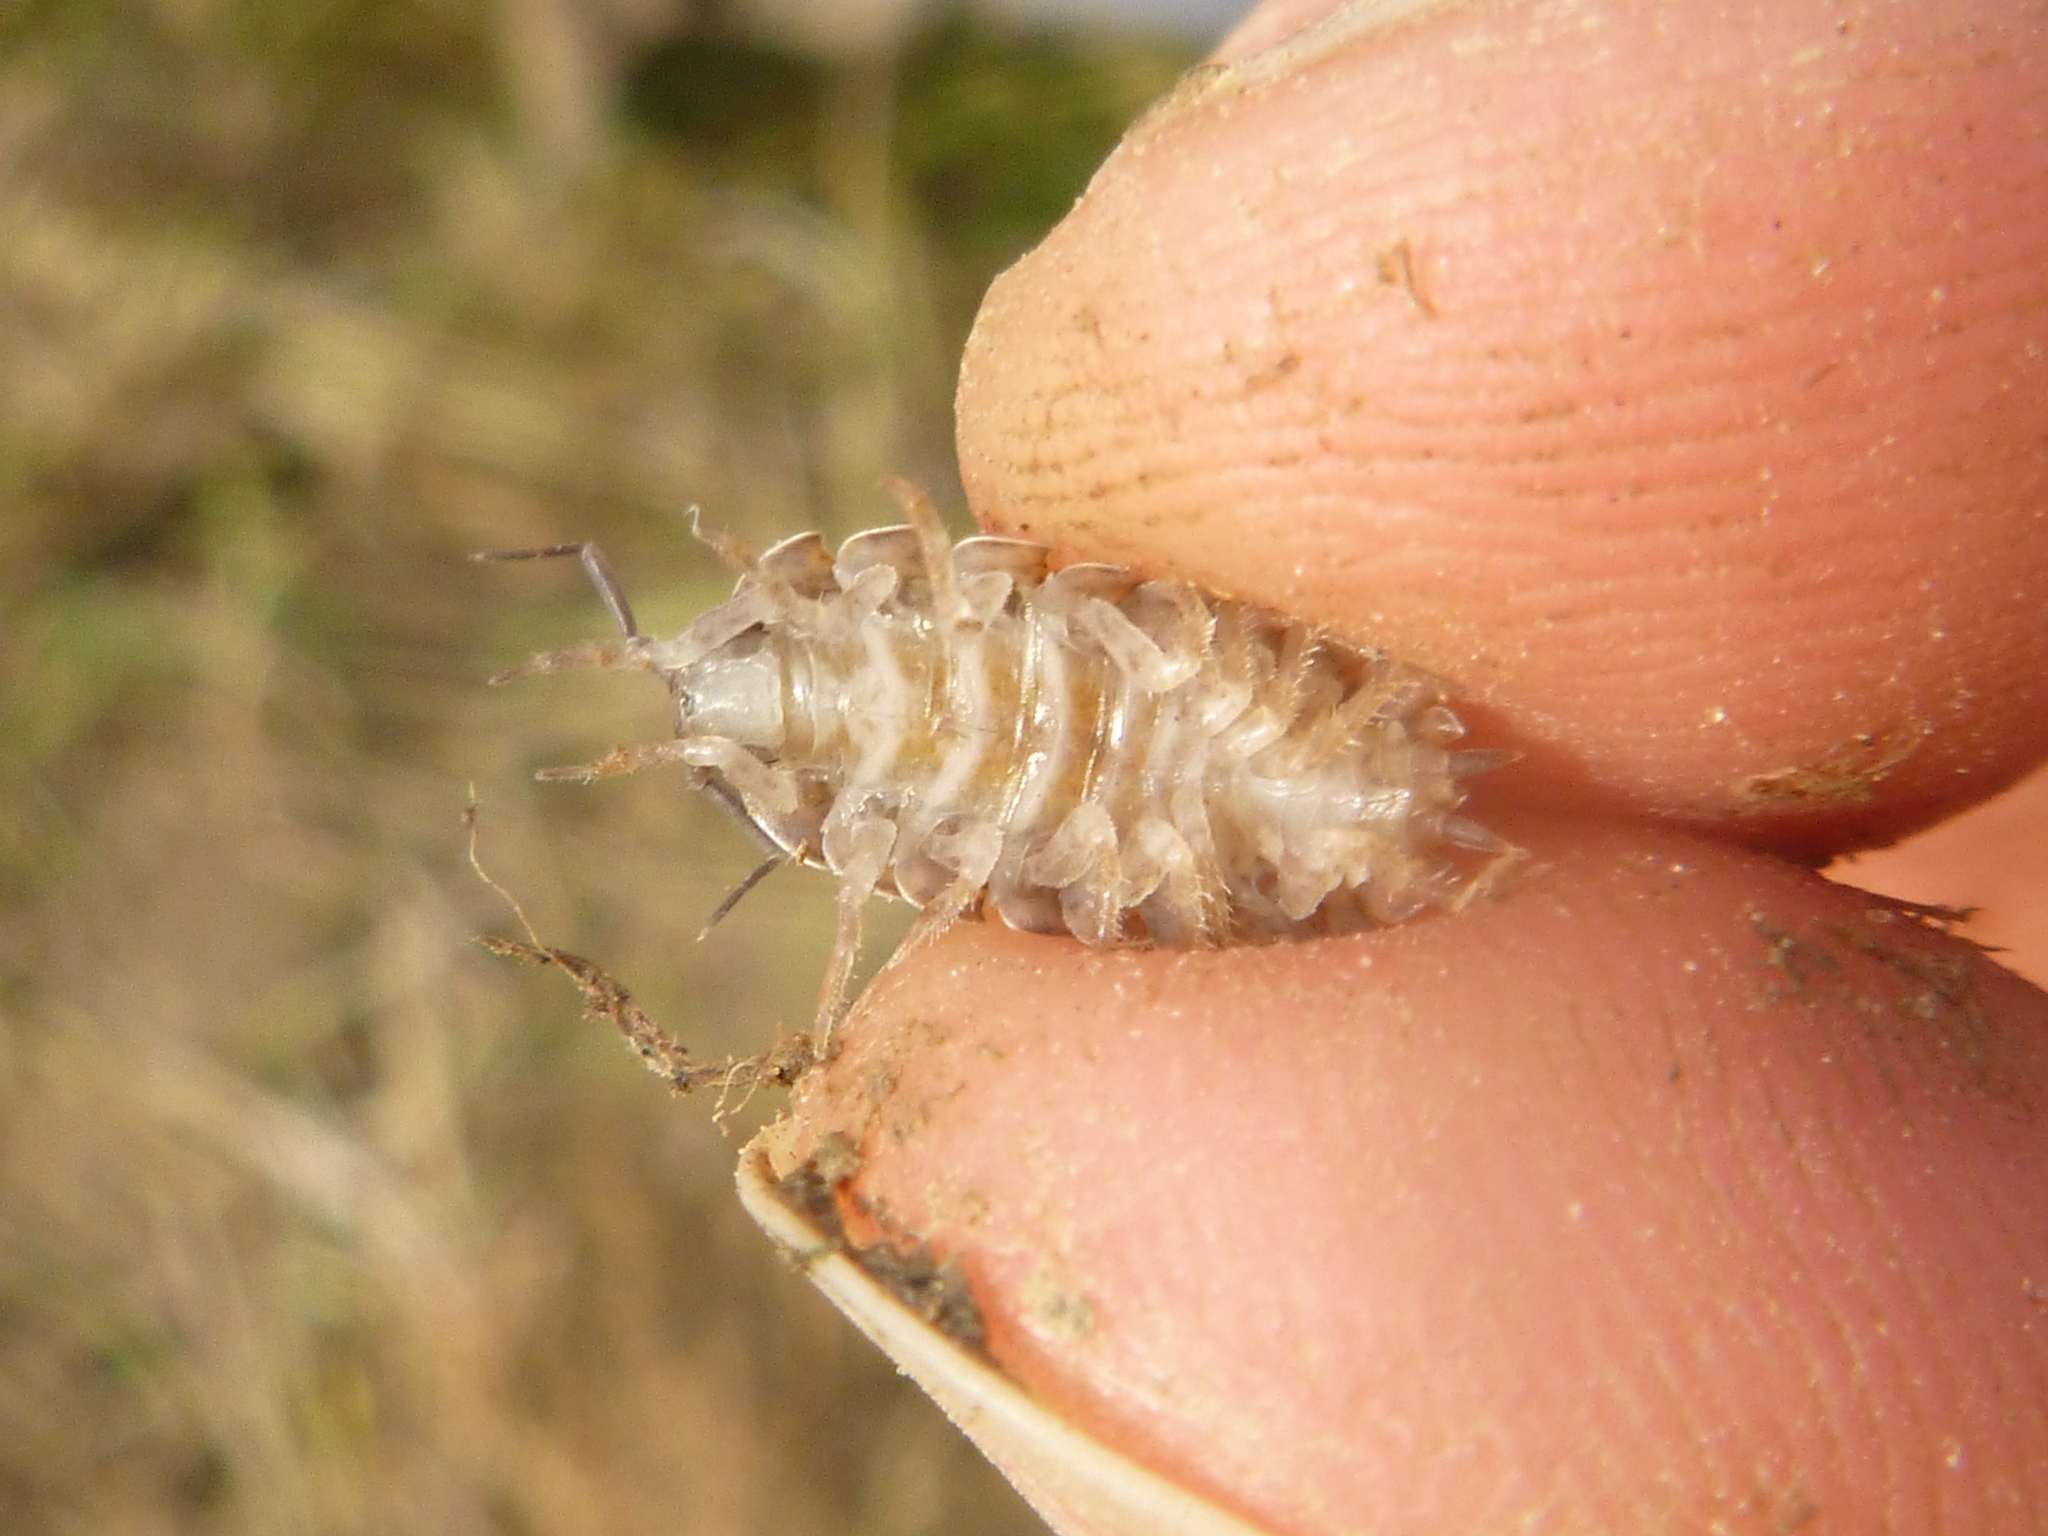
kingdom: Animalia
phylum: Arthropoda
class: Malacostraca
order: Isopoda
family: Trachelipodidae
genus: Trachelipus
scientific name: Trachelipus rathkii
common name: Isopod
